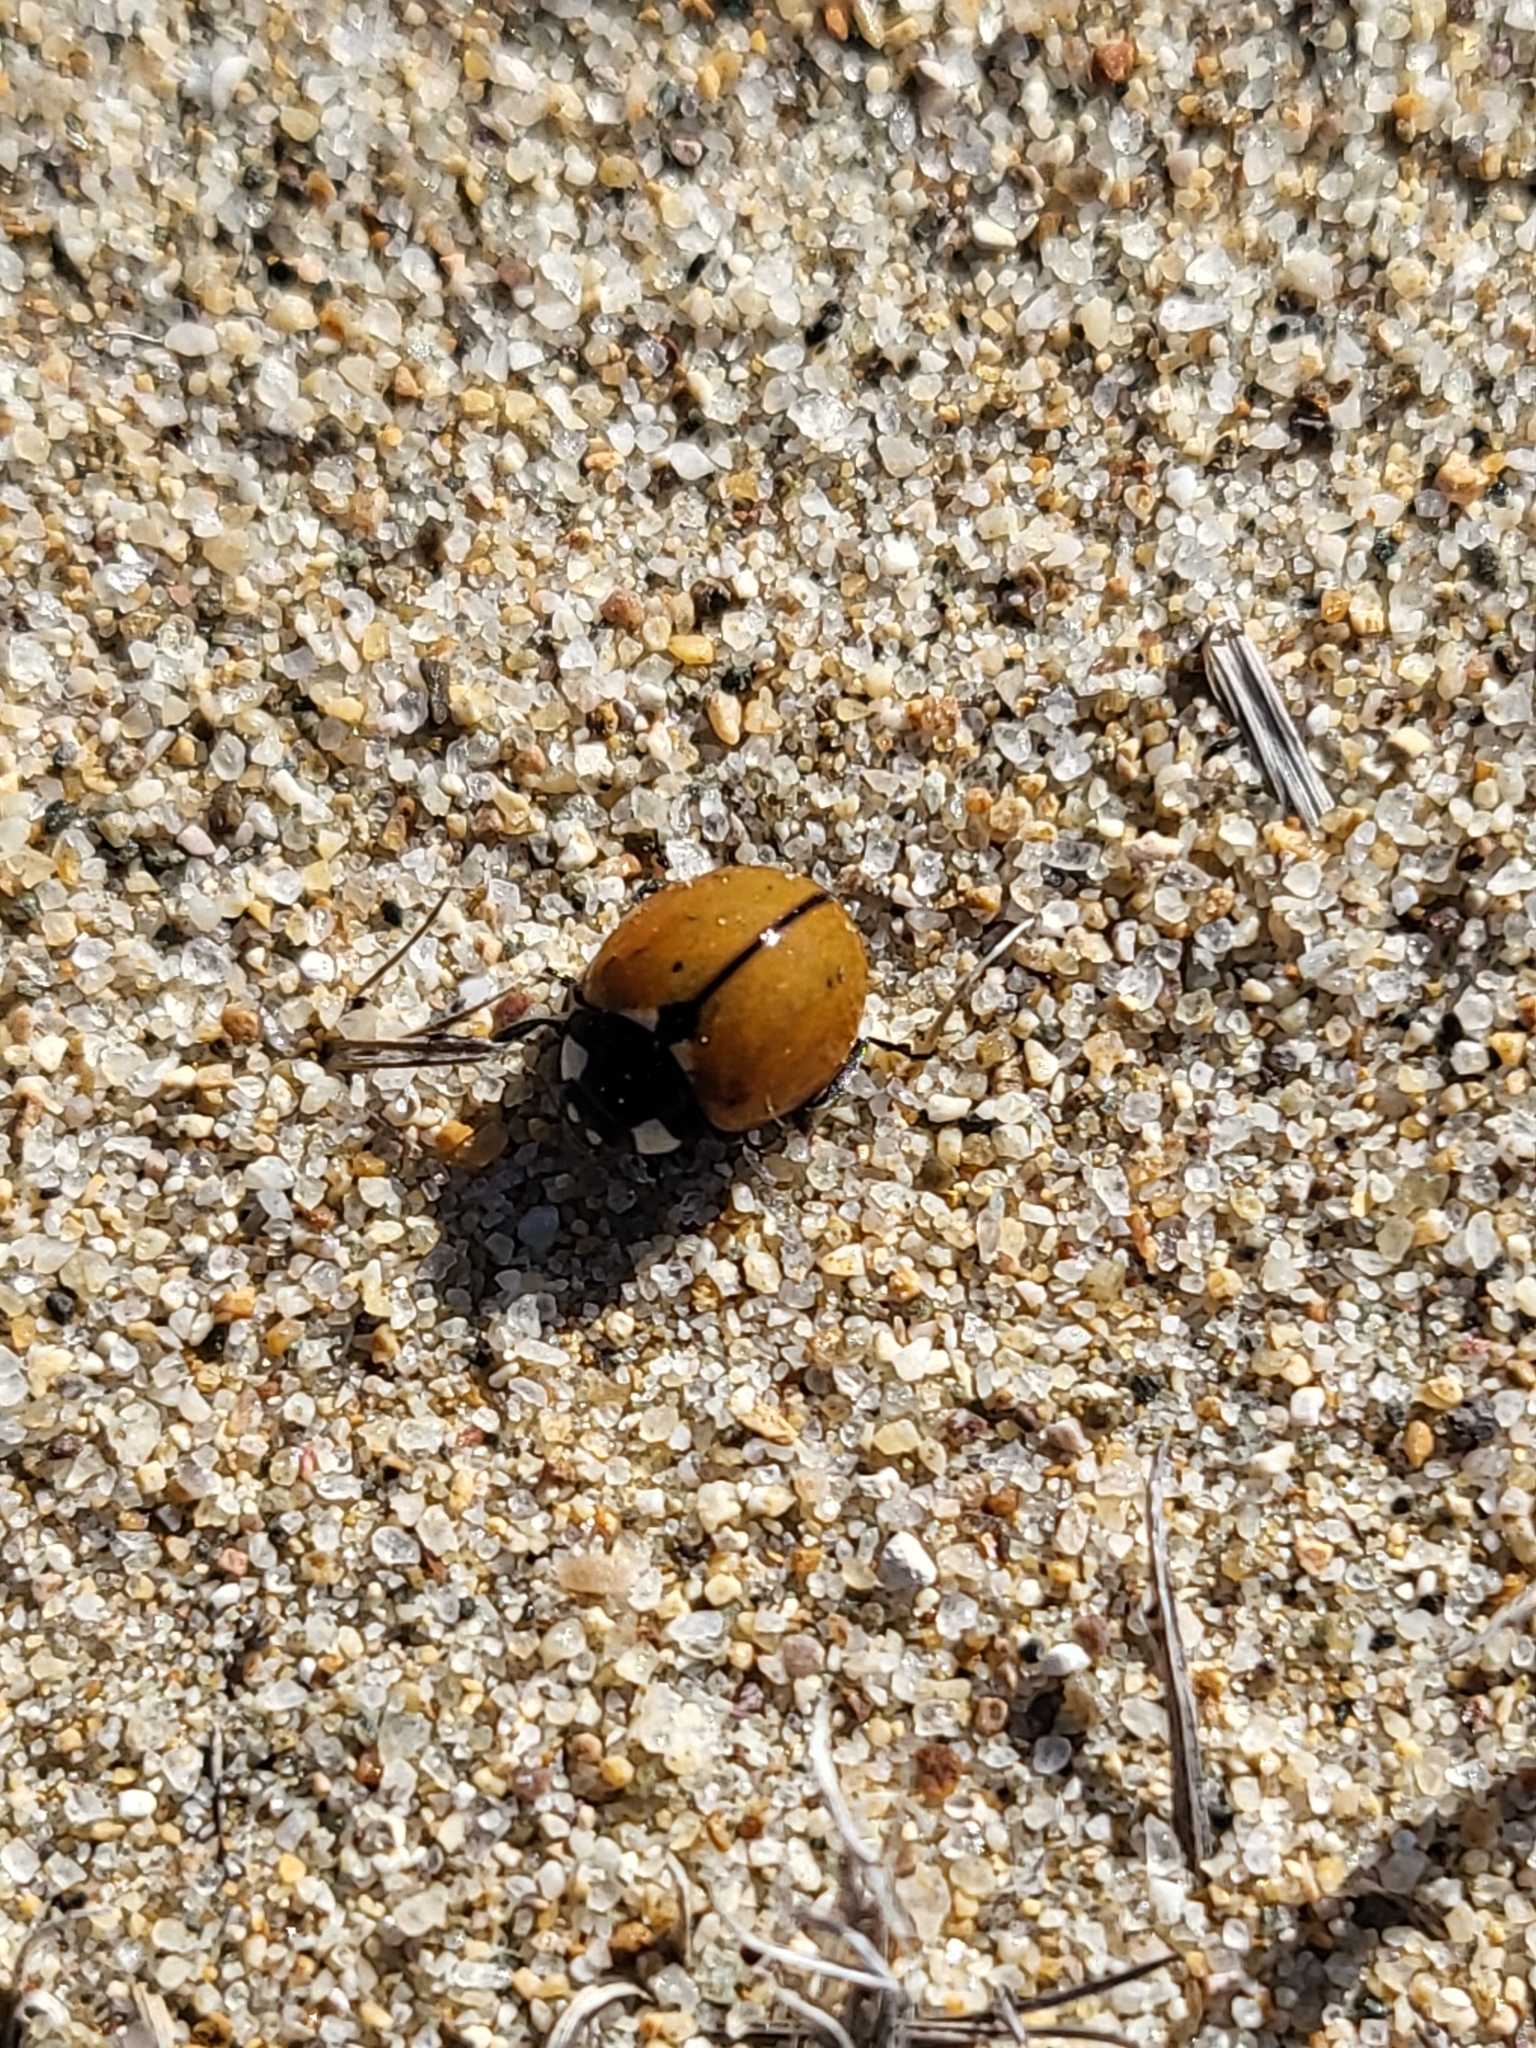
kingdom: Animalia
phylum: Arthropoda
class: Insecta
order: Coleoptera
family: Coccinellidae
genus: Coccinella
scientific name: Coccinella californica
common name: Lady beetle
